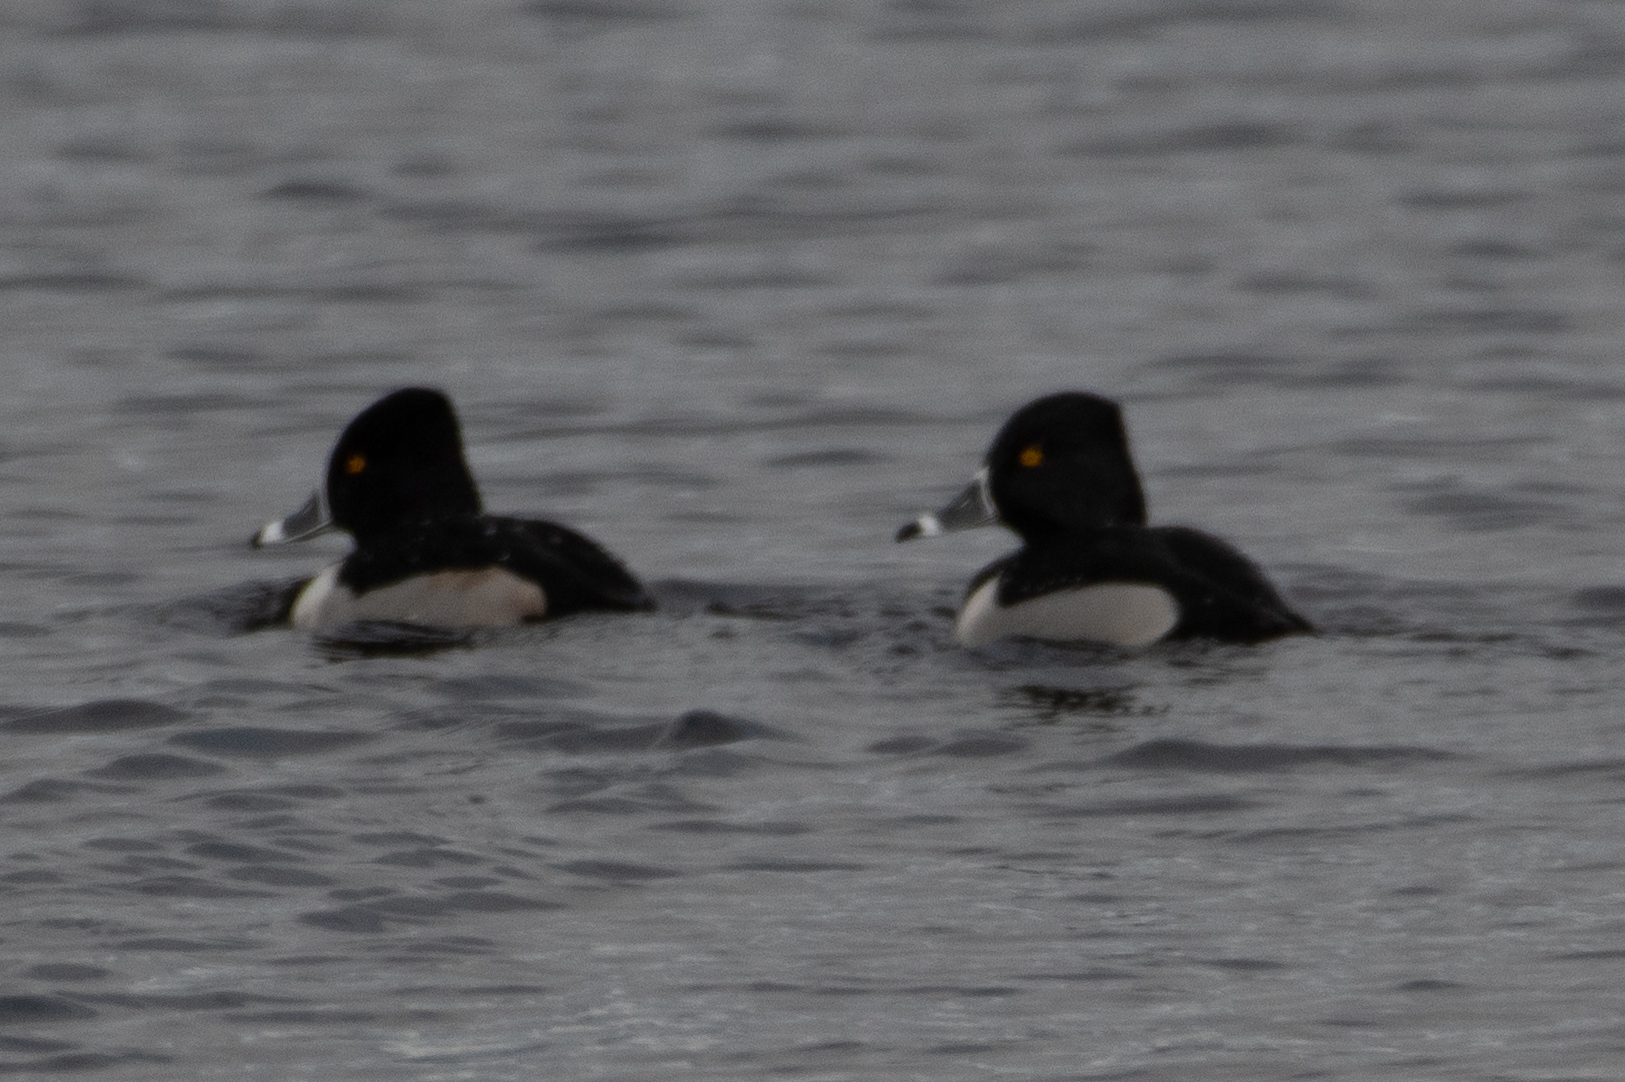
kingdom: Animalia
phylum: Chordata
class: Aves
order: Anseriformes
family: Anatidae
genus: Aythya
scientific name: Aythya collaris
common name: Ring-necked duck
